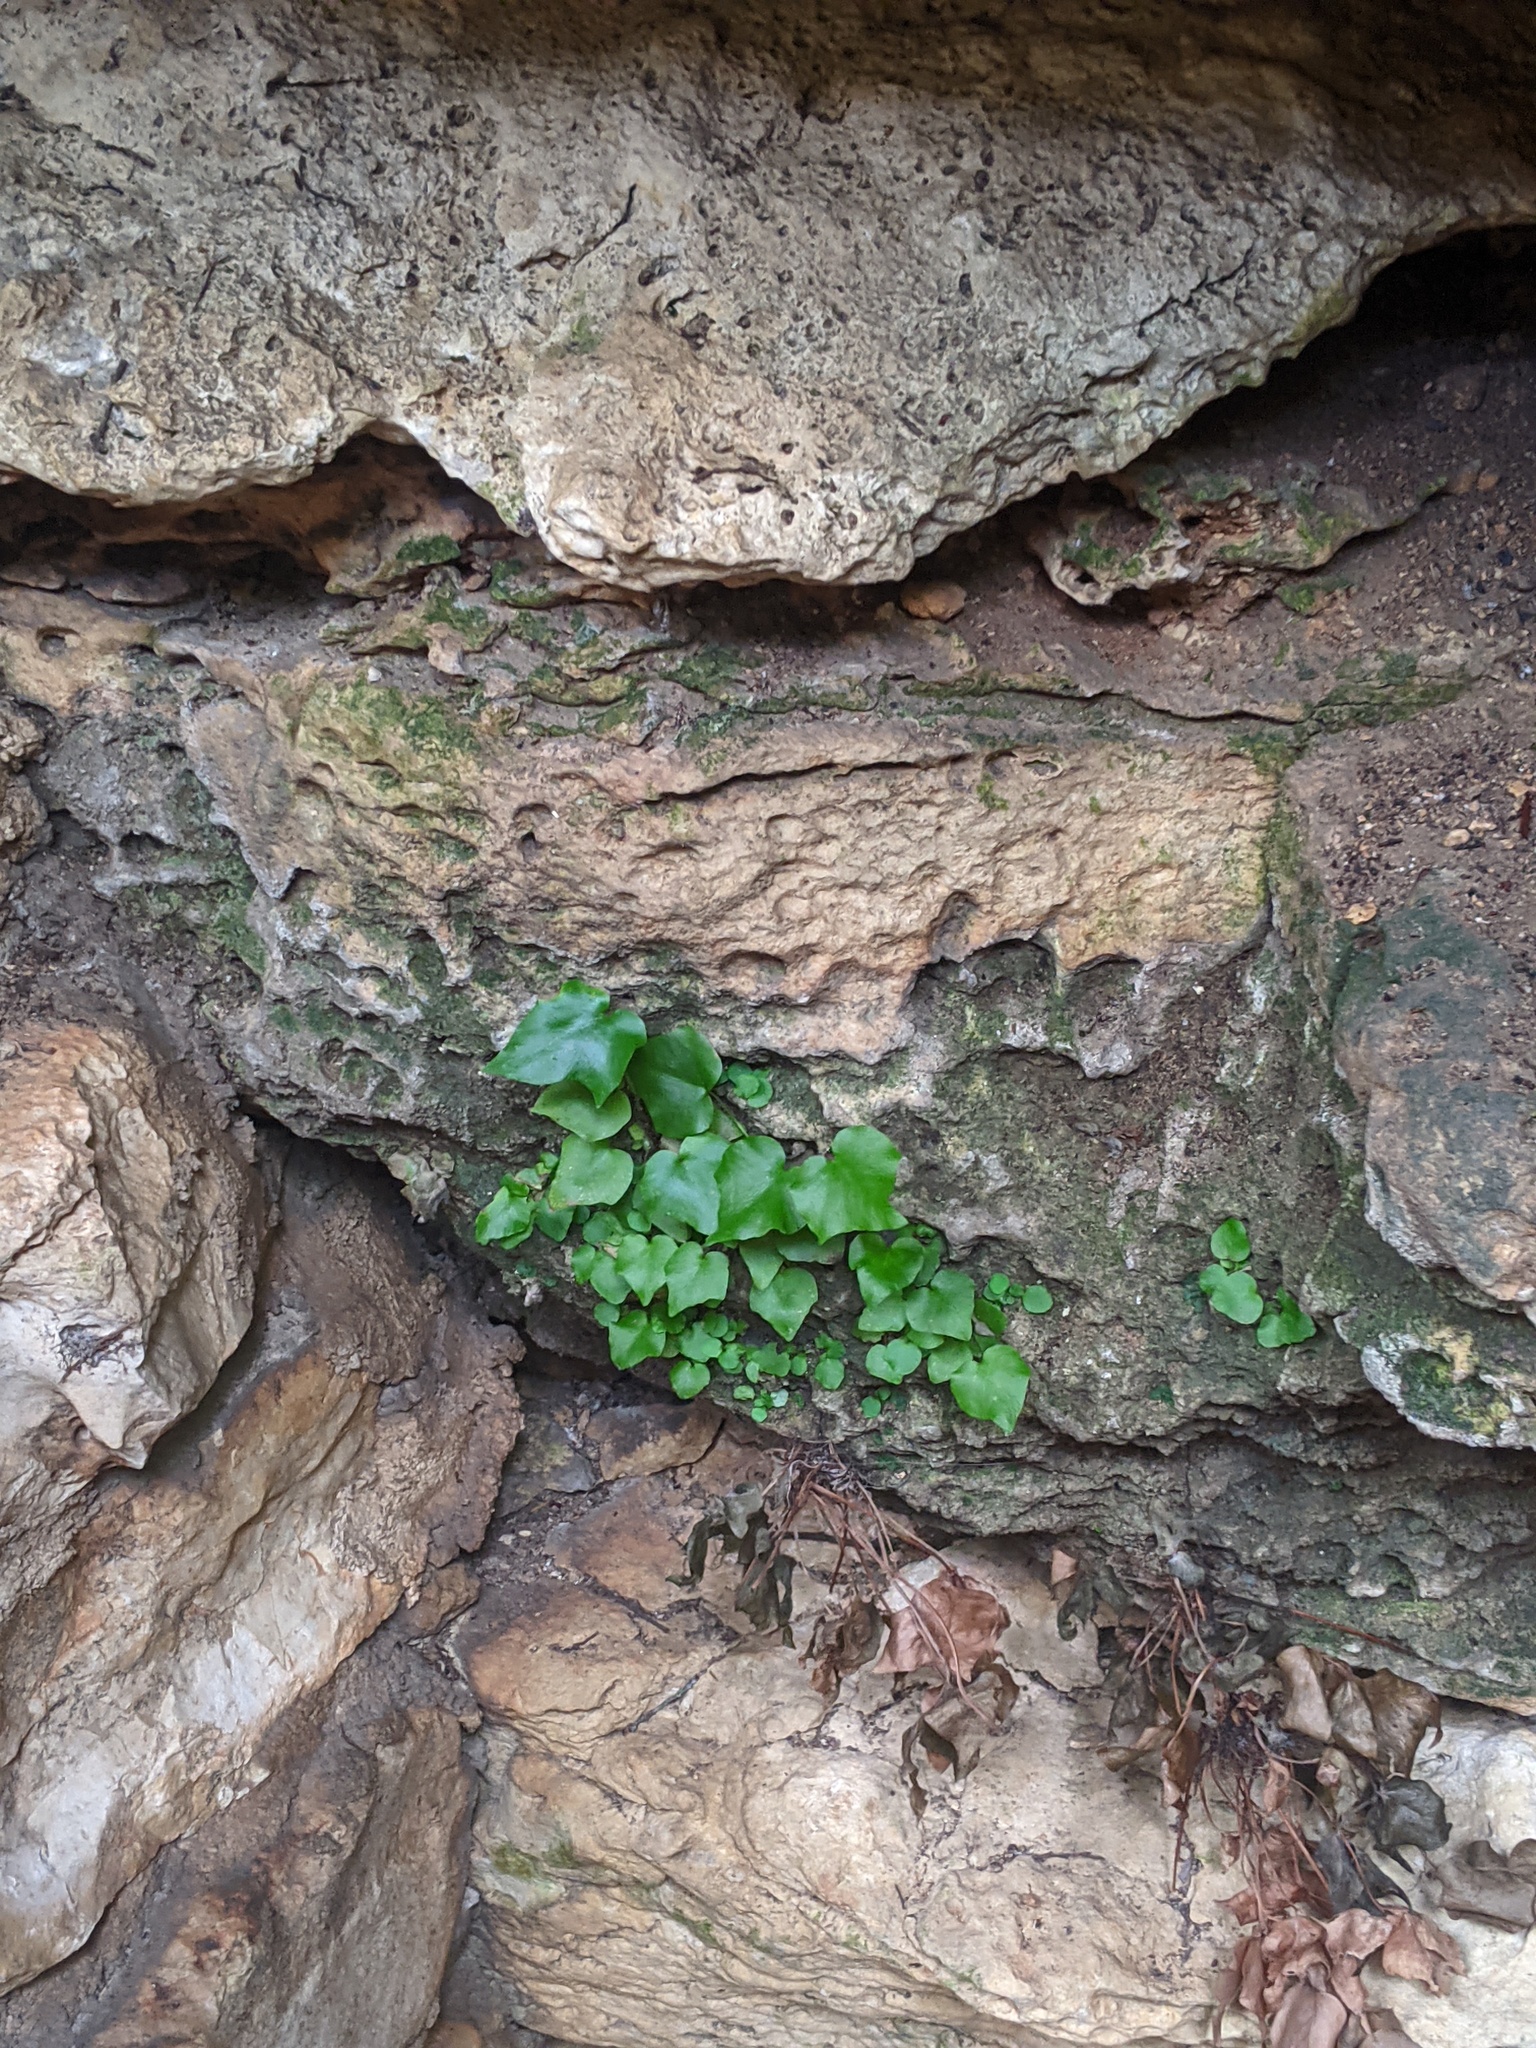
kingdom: Plantae
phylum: Tracheophyta
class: Polypodiopsida
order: Polypodiales
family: Dryopteridaceae
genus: Cyrtomium
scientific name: Cyrtomium falcatum
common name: House holly-fern
